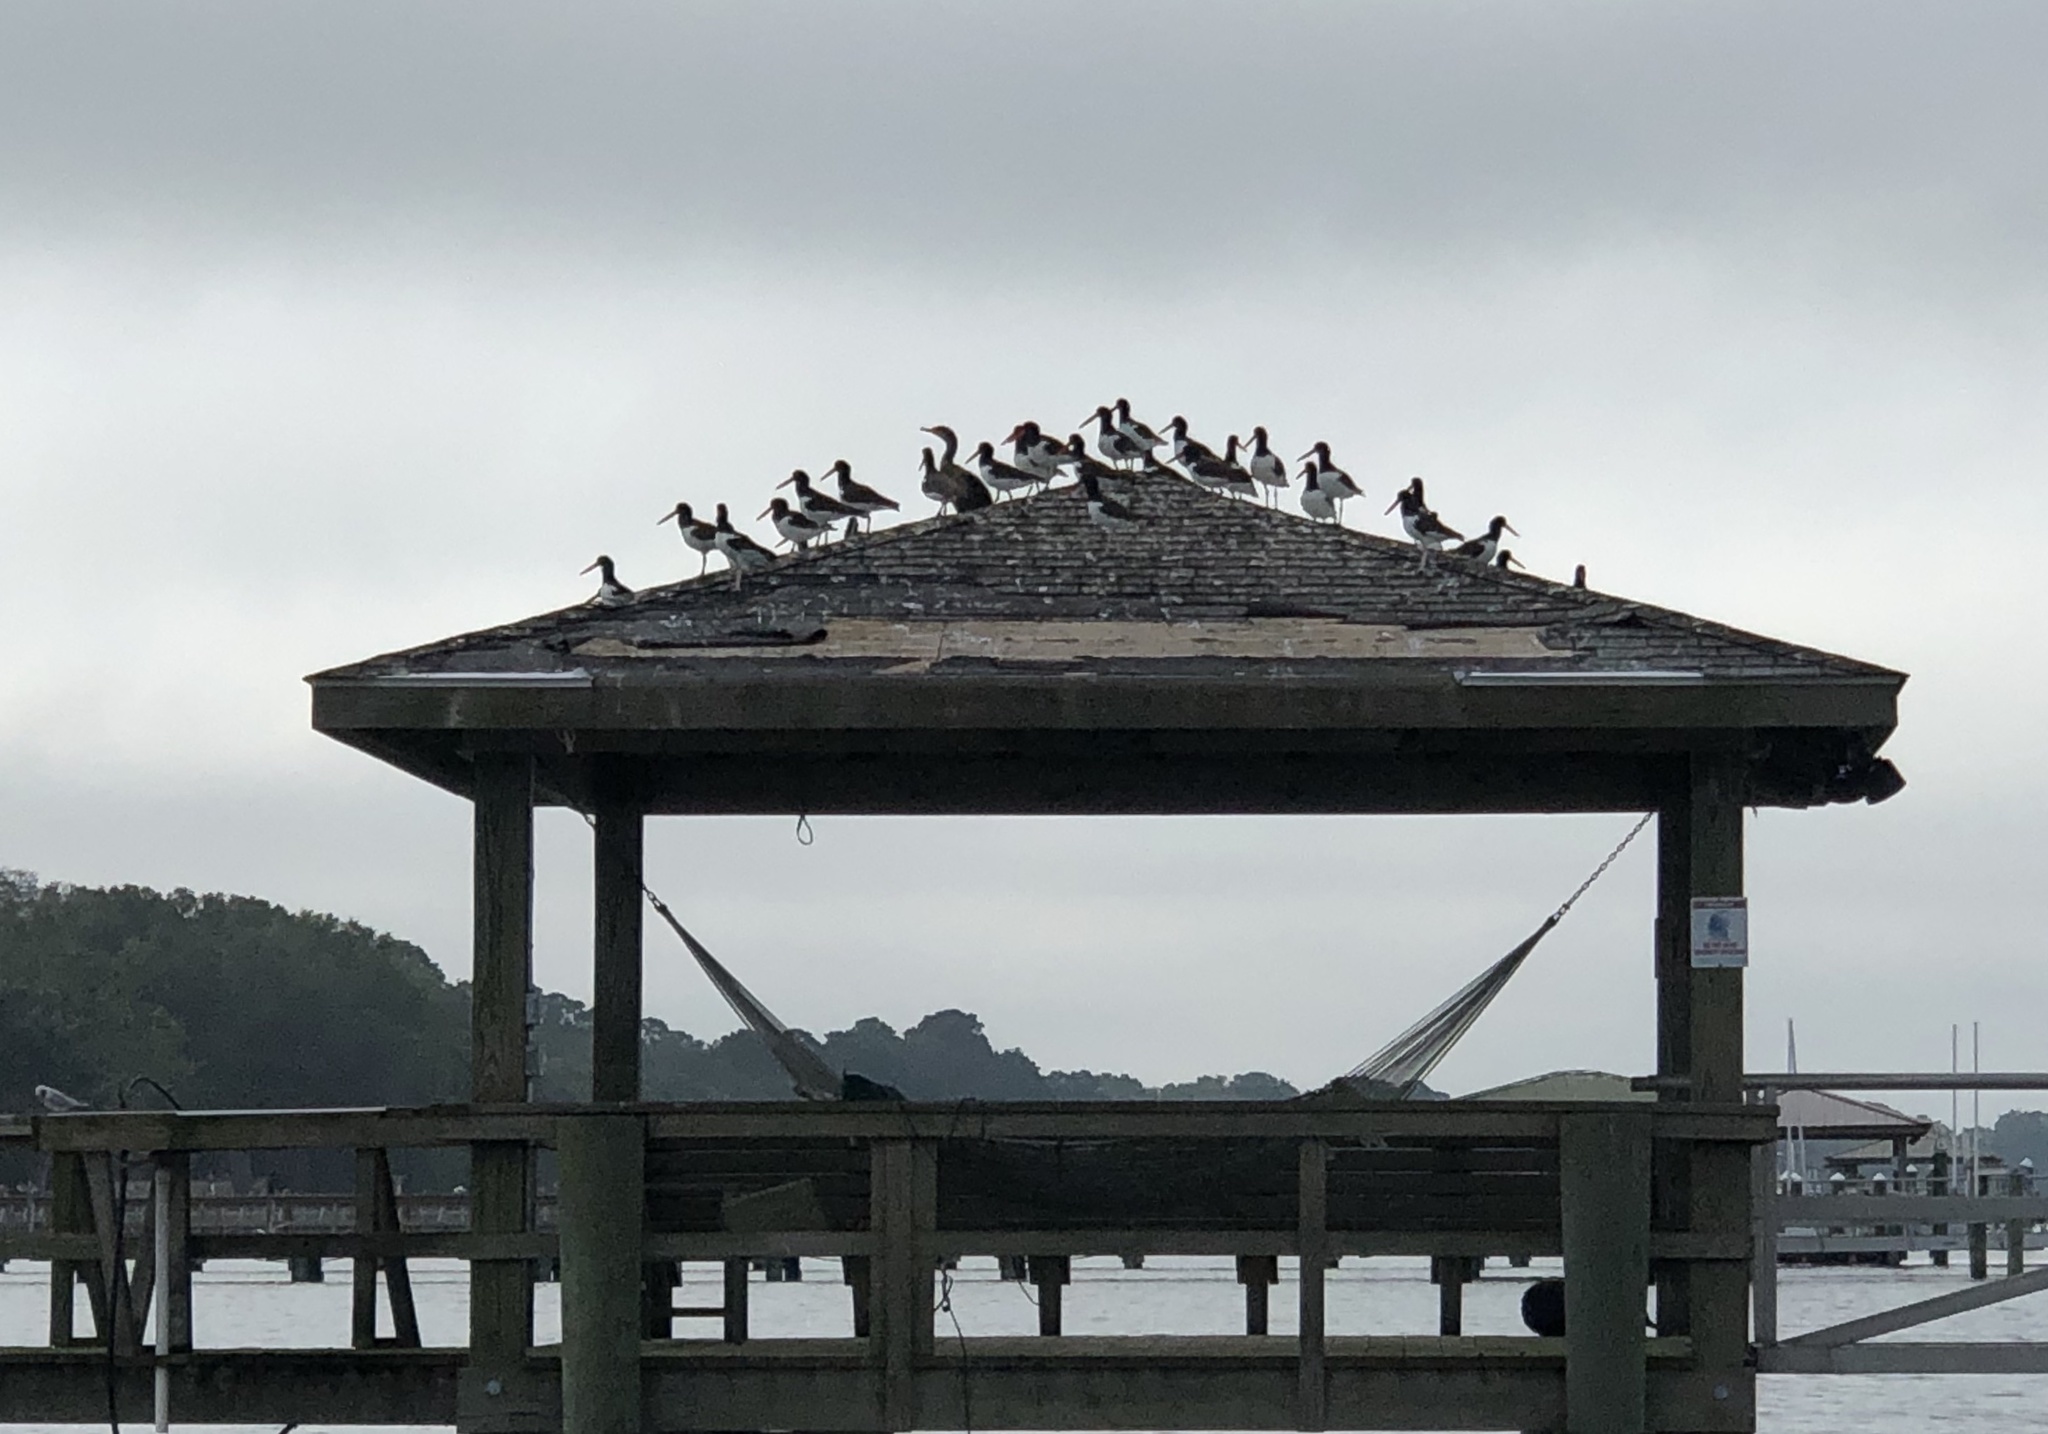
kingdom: Animalia
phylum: Chordata
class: Aves
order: Charadriiformes
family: Haematopodidae
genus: Haematopus
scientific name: Haematopus palliatus
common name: American oystercatcher
